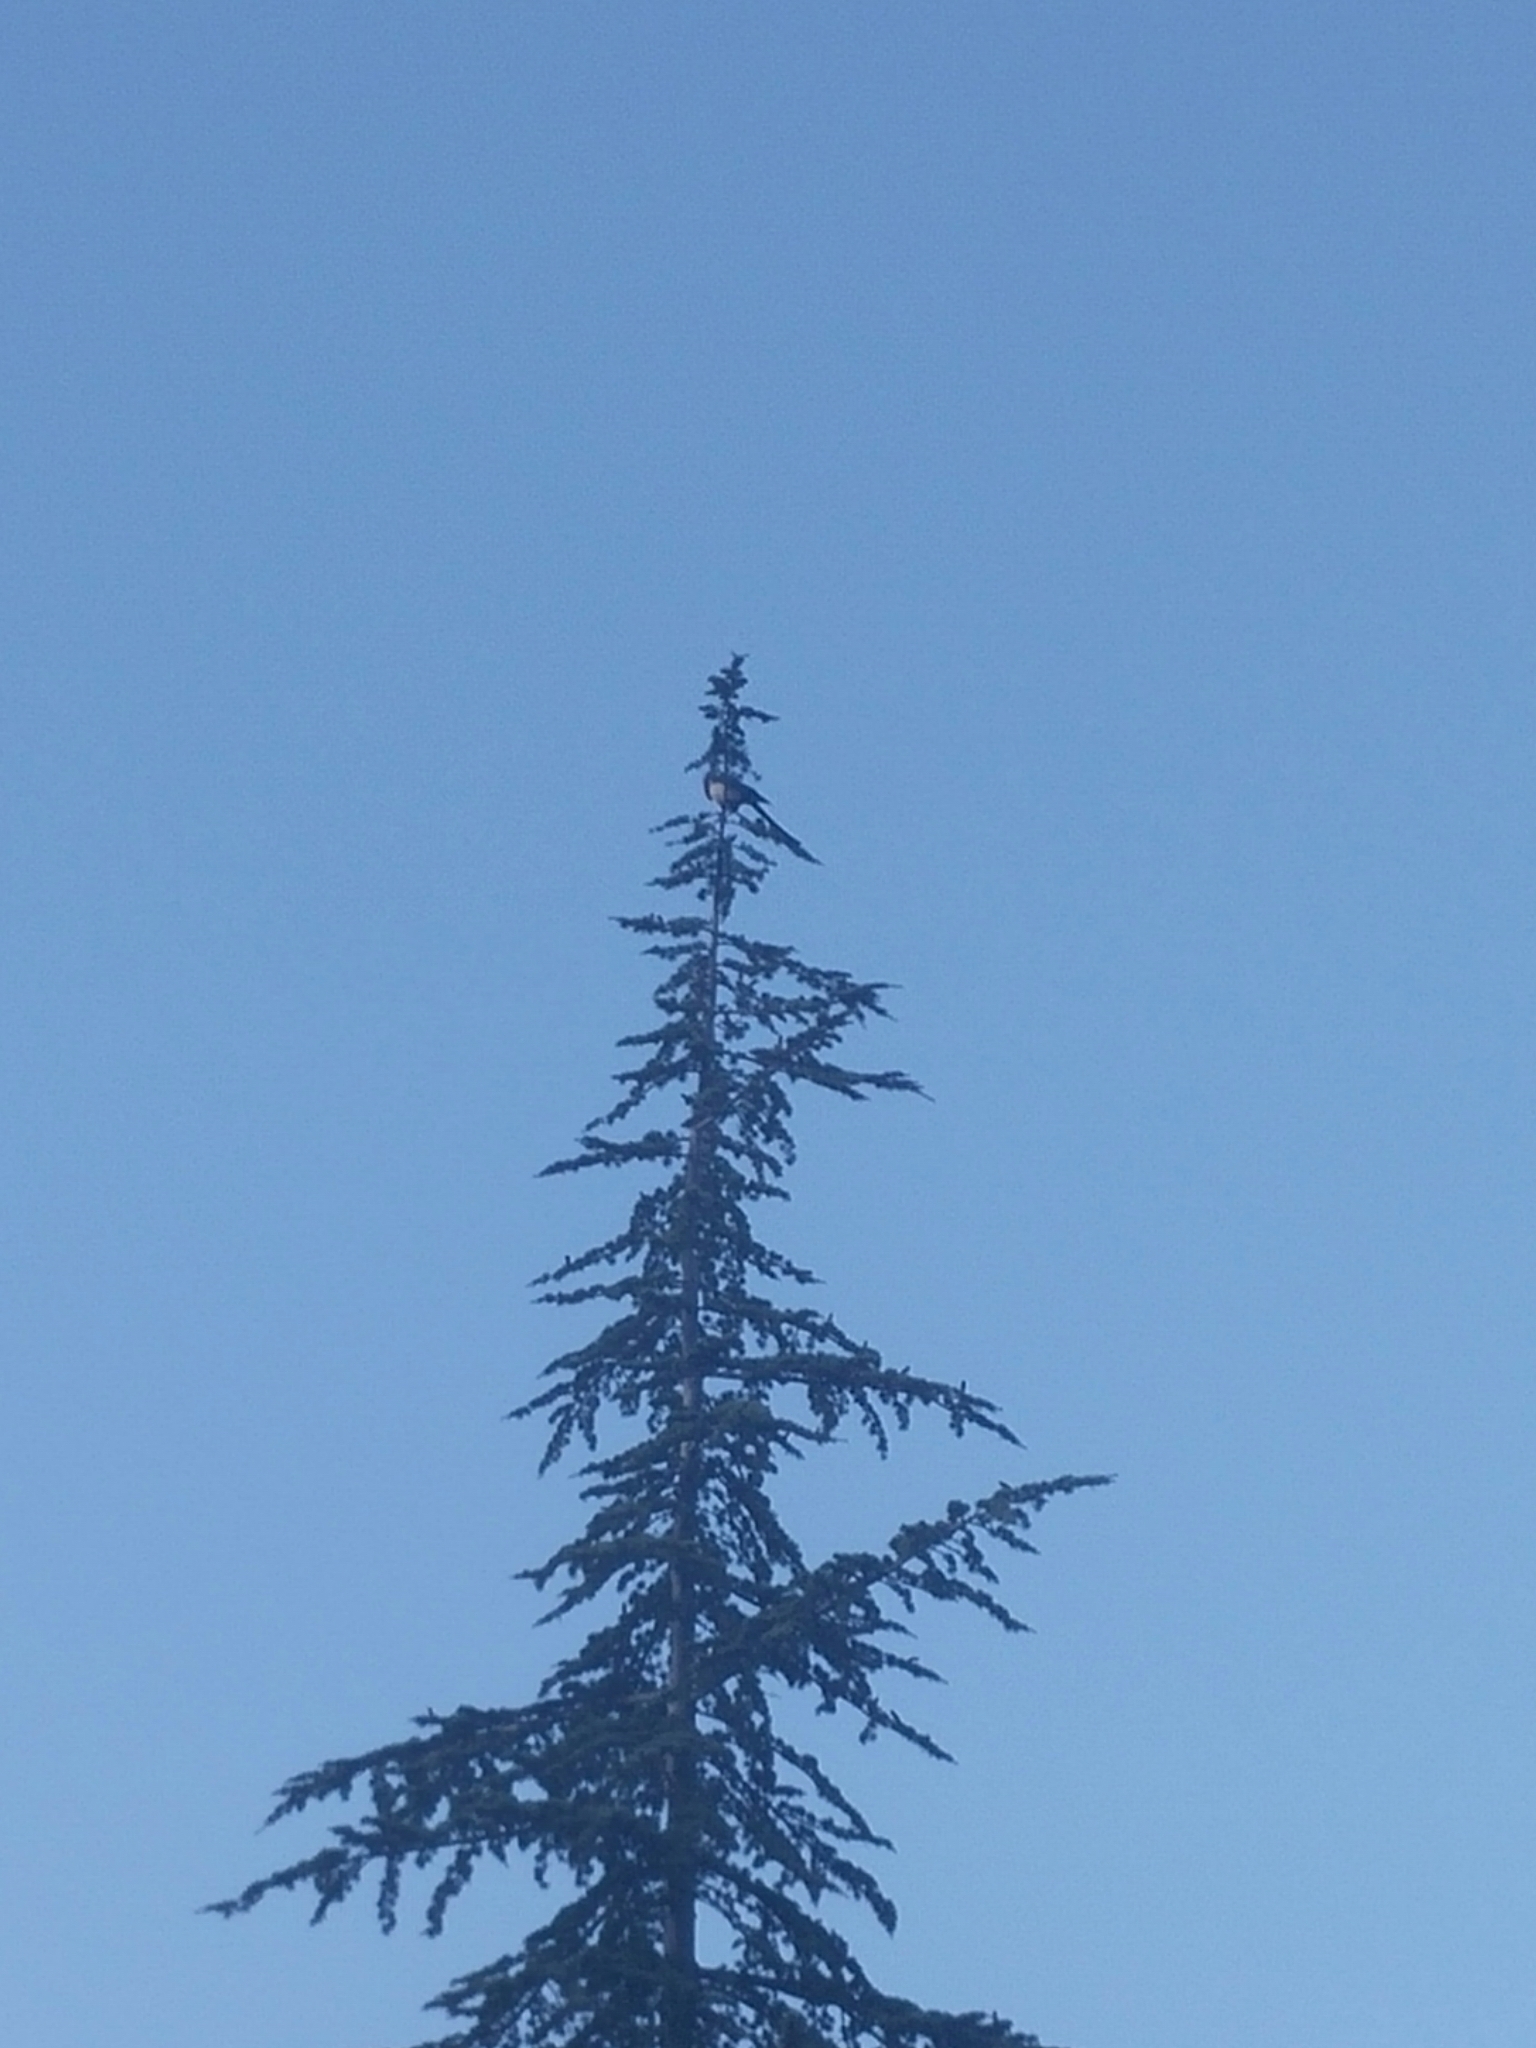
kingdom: Animalia
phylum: Chordata
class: Aves
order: Passeriformes
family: Corvidae
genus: Pica
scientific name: Pica pica
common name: Eurasian magpie
